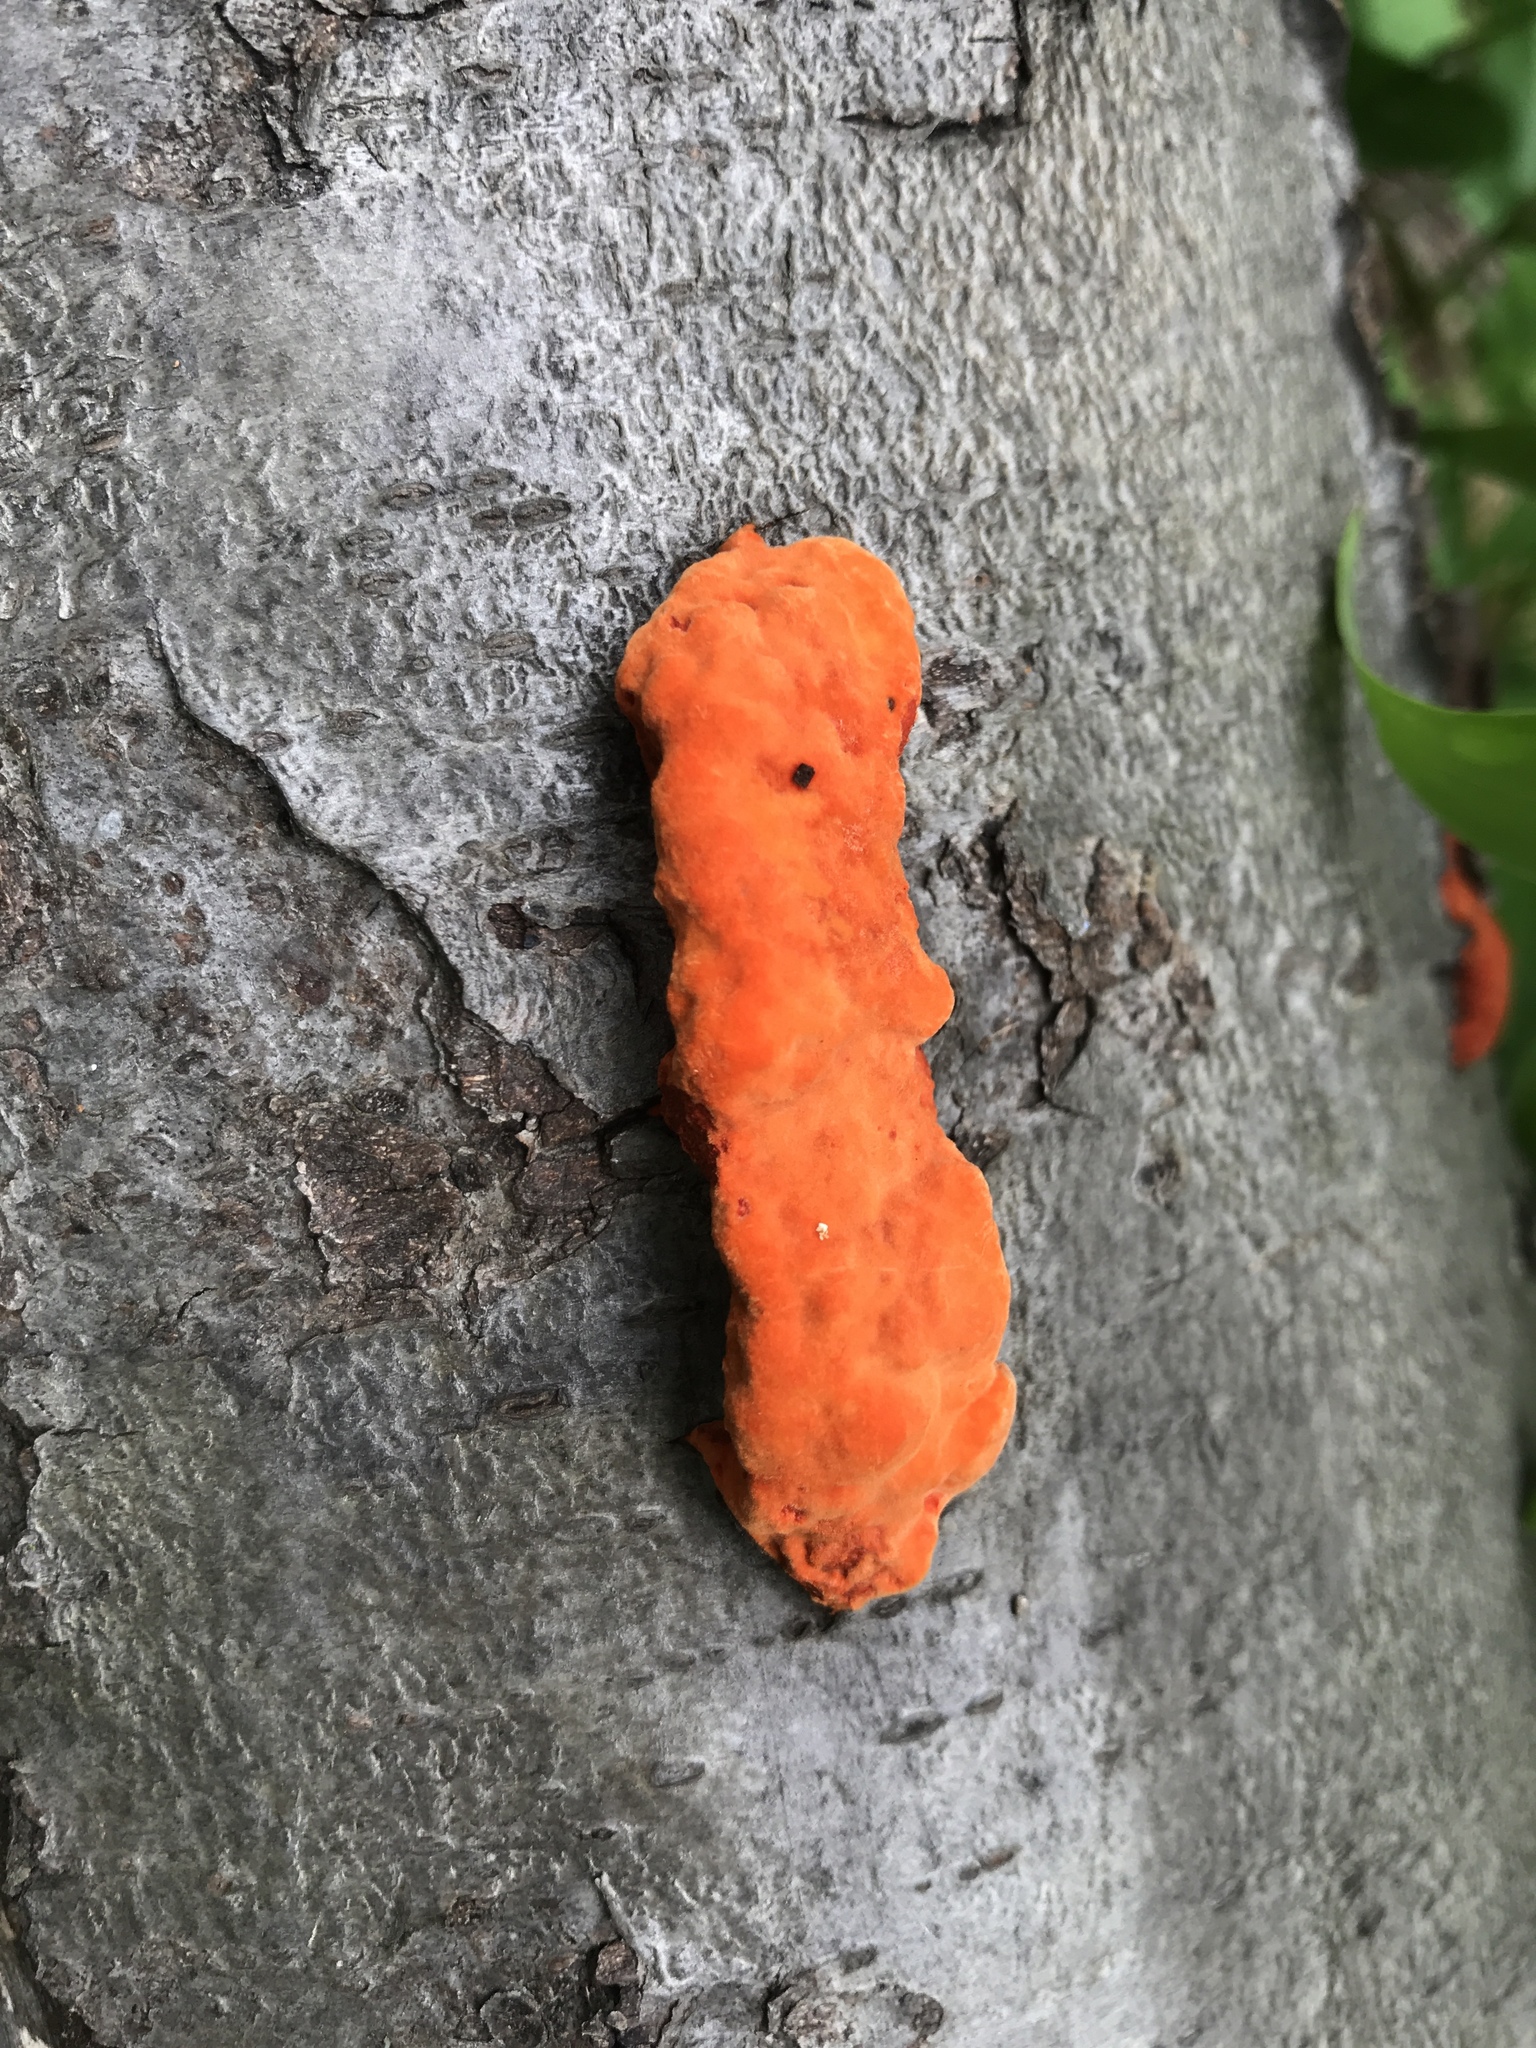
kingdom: Fungi
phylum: Basidiomycota
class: Agaricomycetes
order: Polyporales
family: Polyporaceae
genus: Trametes
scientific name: Trametes cinnabarina
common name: Northern cinnabar polypore
